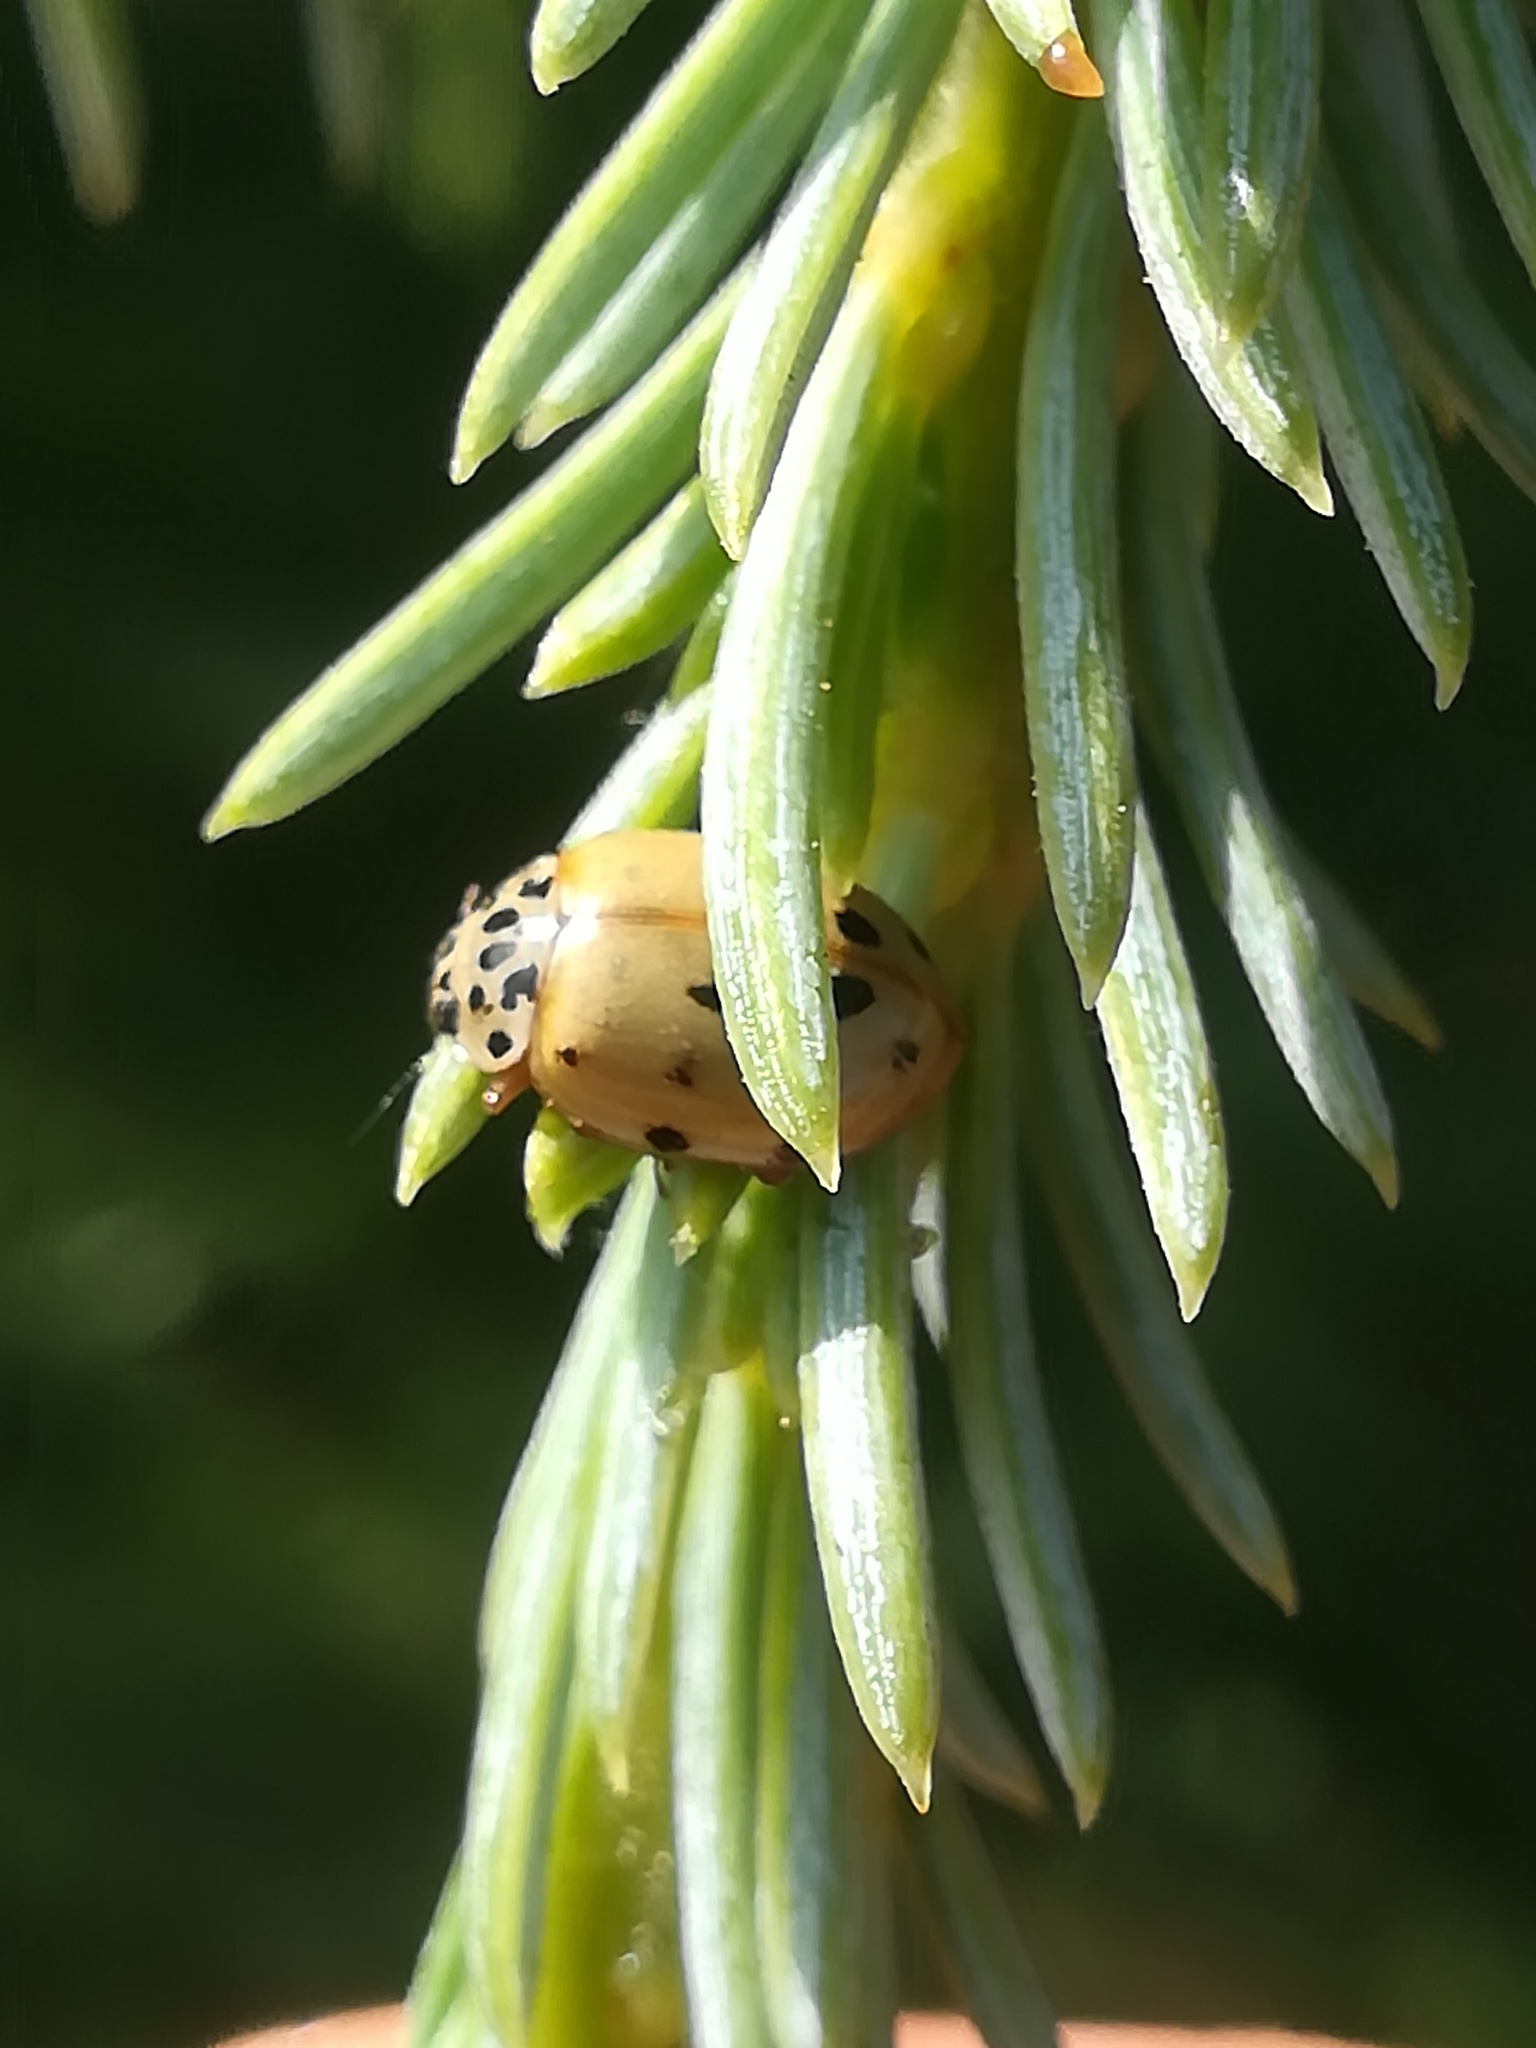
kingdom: Animalia
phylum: Arthropoda
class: Insecta
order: Coleoptera
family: Coccinellidae
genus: Harmonia
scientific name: Harmonia quadripunctata
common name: Cream-streaked ladybird
